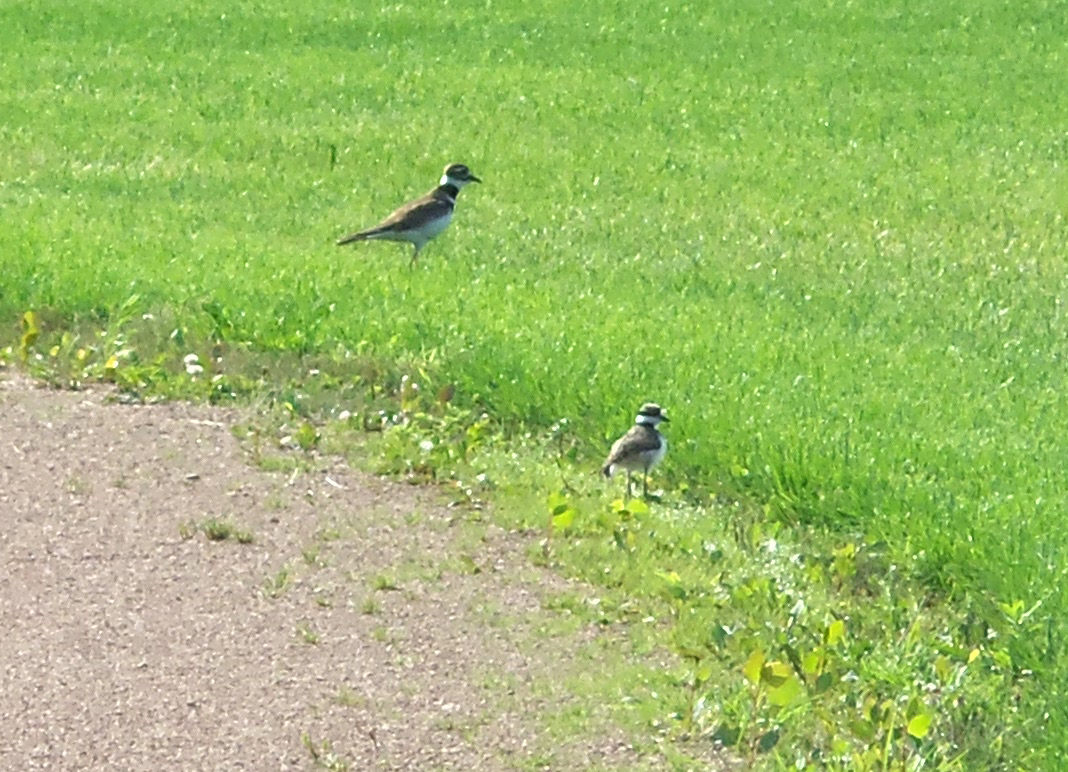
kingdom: Animalia
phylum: Chordata
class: Aves
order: Charadriiformes
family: Charadriidae
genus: Charadrius
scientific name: Charadrius vociferus
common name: Killdeer
